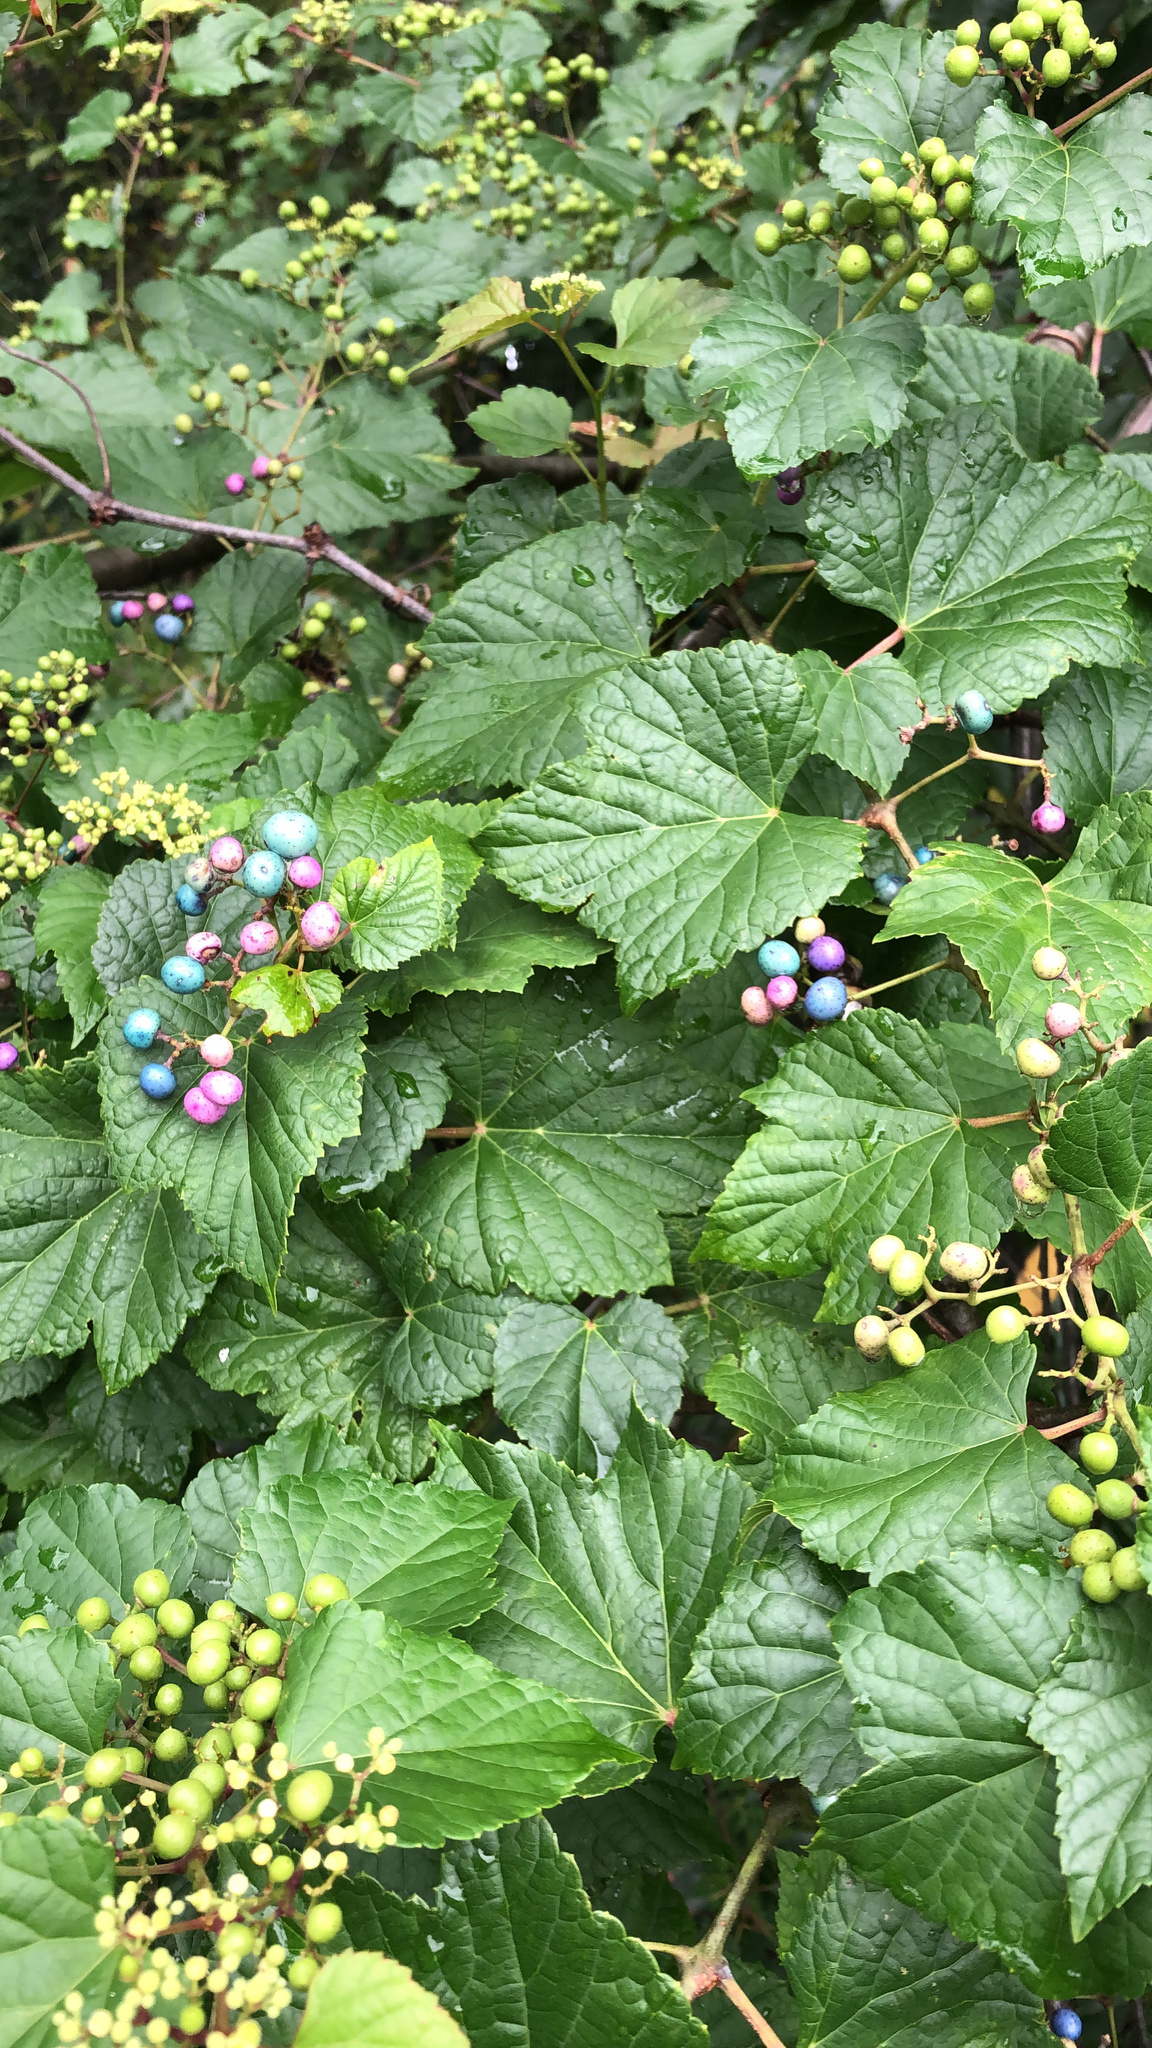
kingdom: Plantae
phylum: Tracheophyta
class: Magnoliopsida
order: Vitales
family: Vitaceae
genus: Ampelopsis
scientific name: Ampelopsis glandulosa
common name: Amur peppervine
